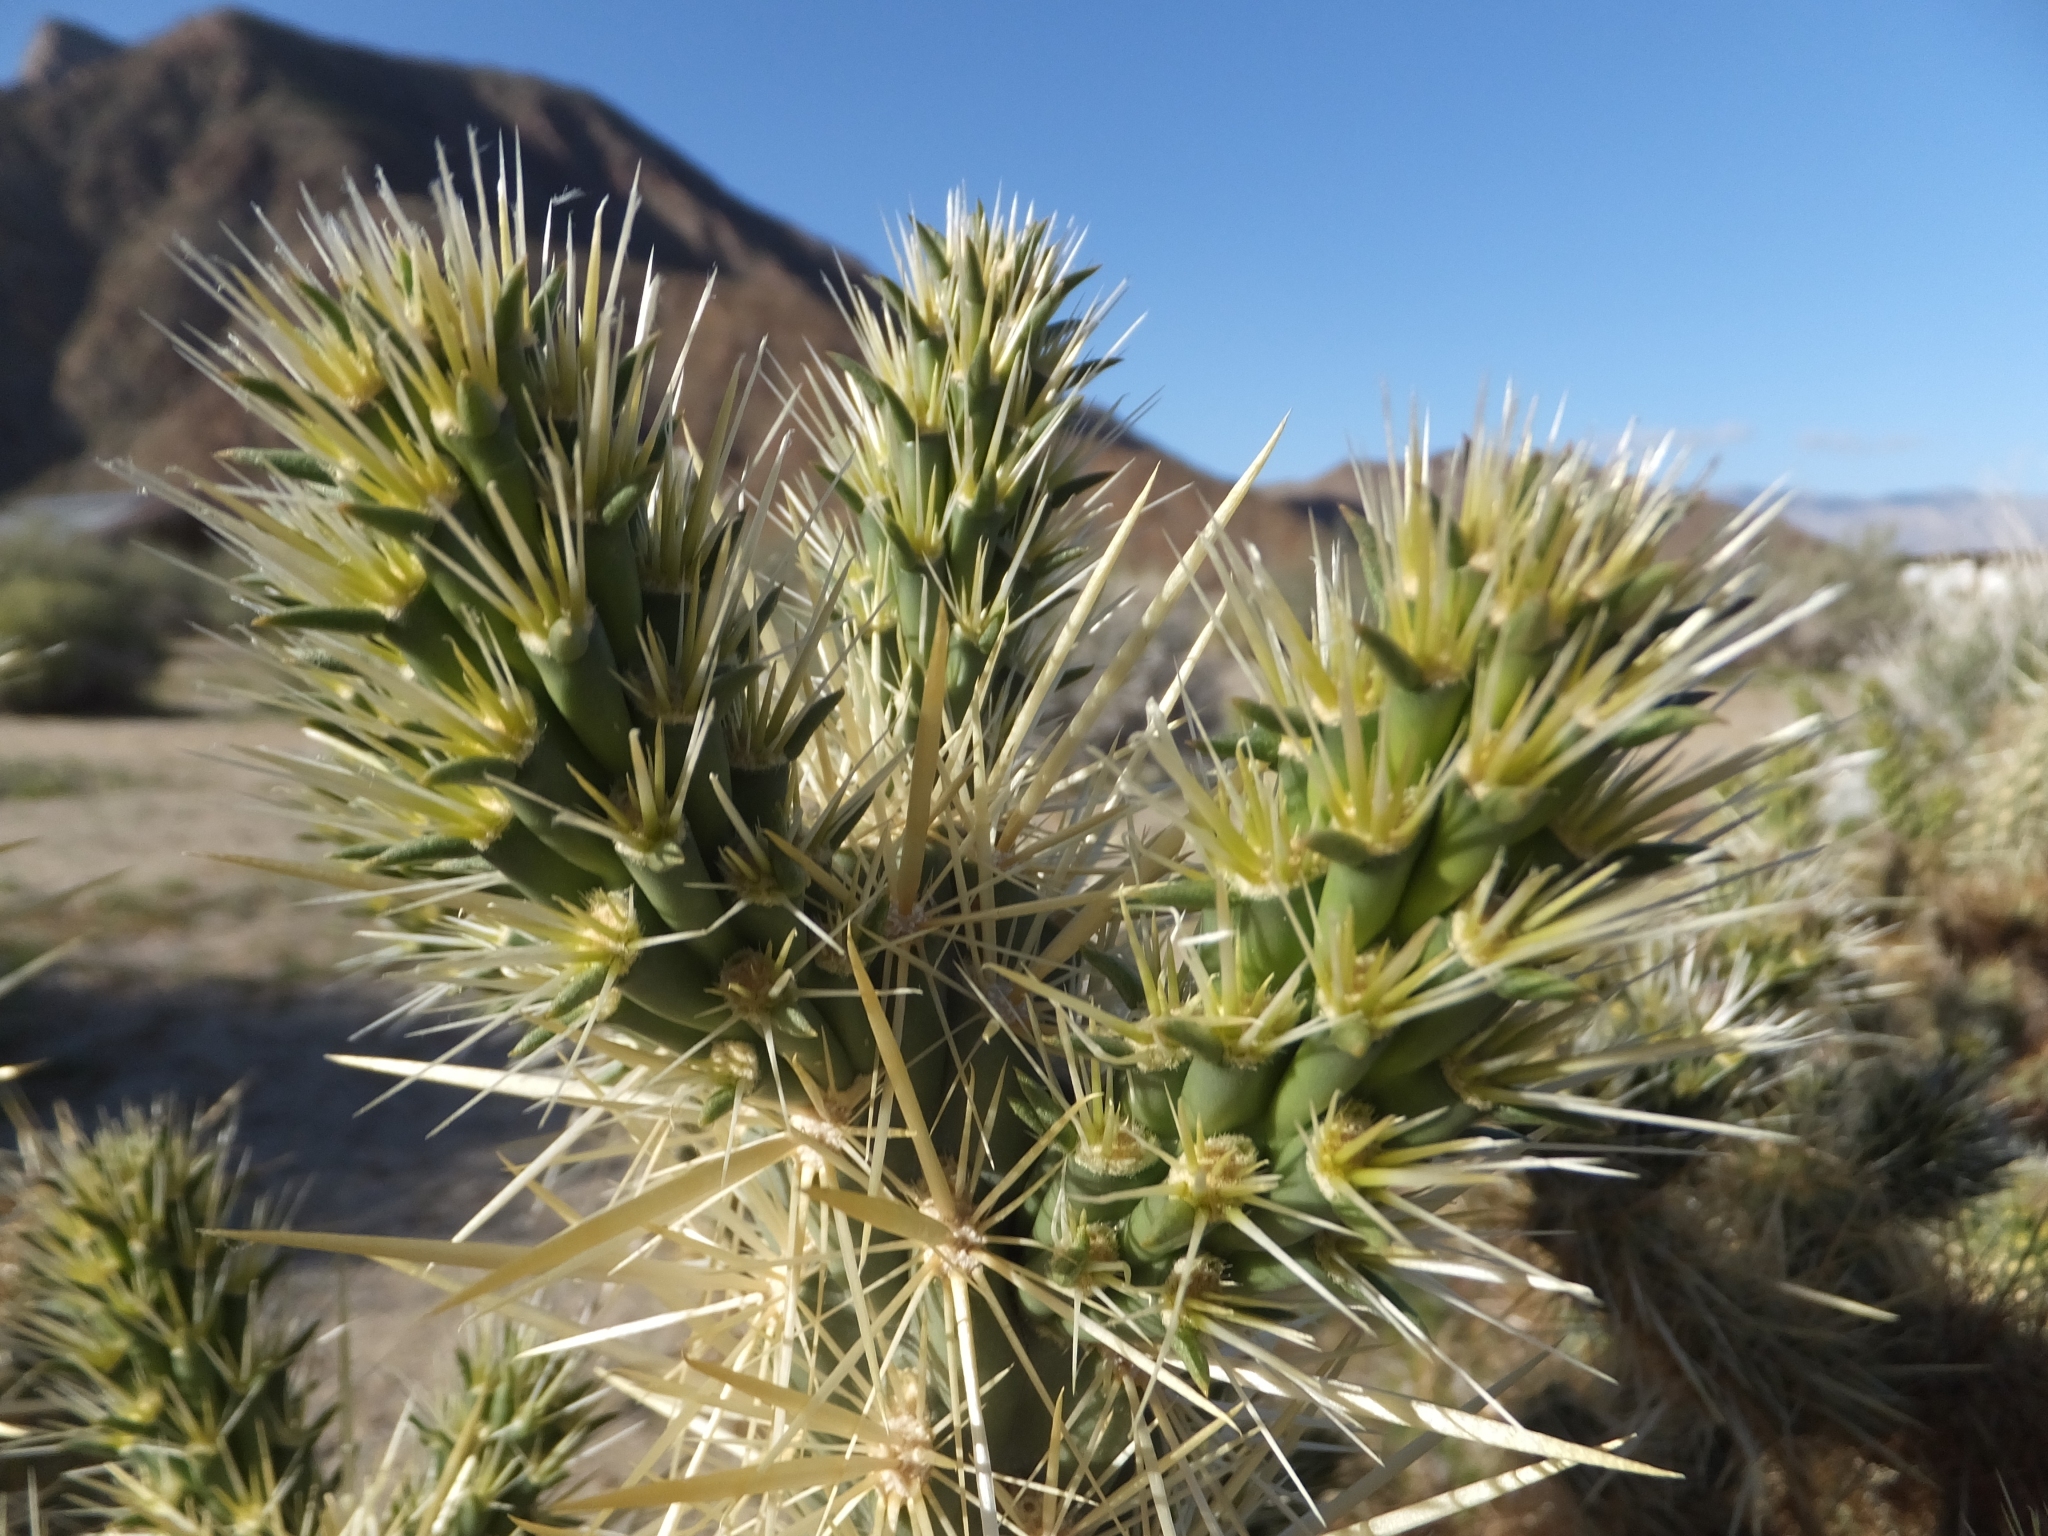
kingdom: Plantae
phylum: Tracheophyta
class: Magnoliopsida
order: Caryophyllales
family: Cactaceae
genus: Cylindropuntia
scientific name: Cylindropuntia ganderi
